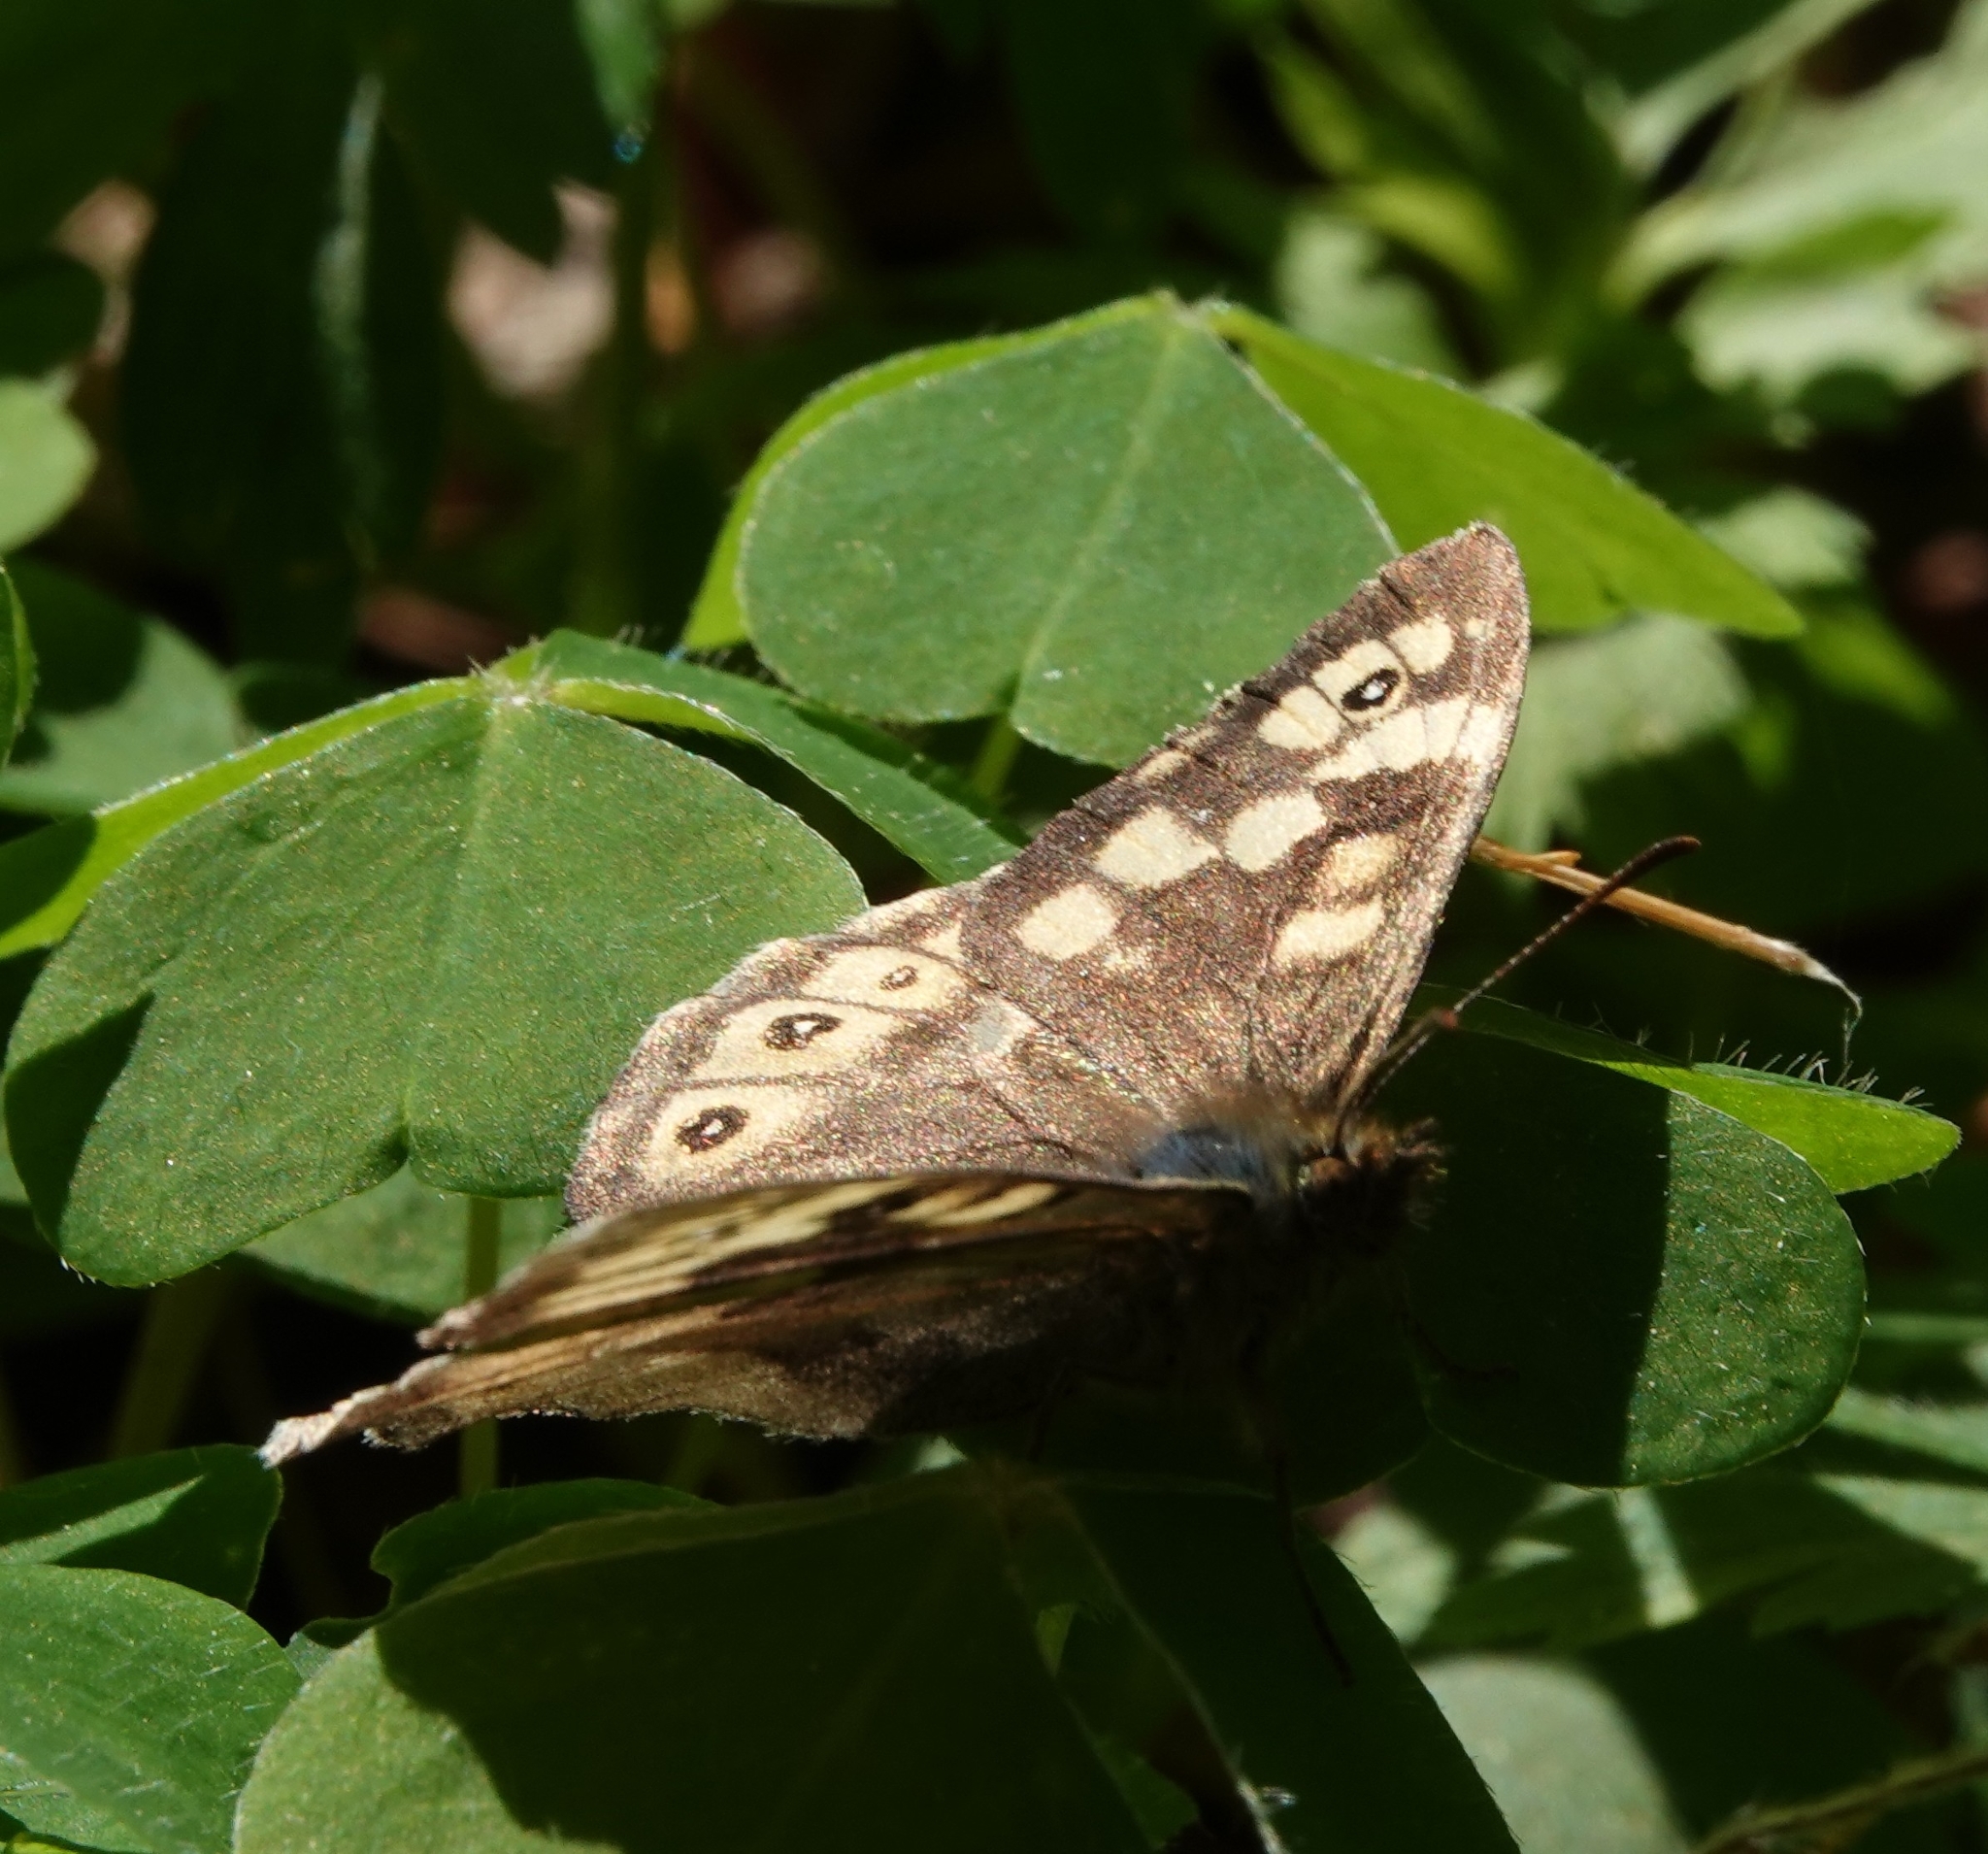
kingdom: Animalia
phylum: Arthropoda
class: Insecta
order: Lepidoptera
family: Nymphalidae
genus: Pararge
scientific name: Pararge aegeria
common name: Speckled wood
